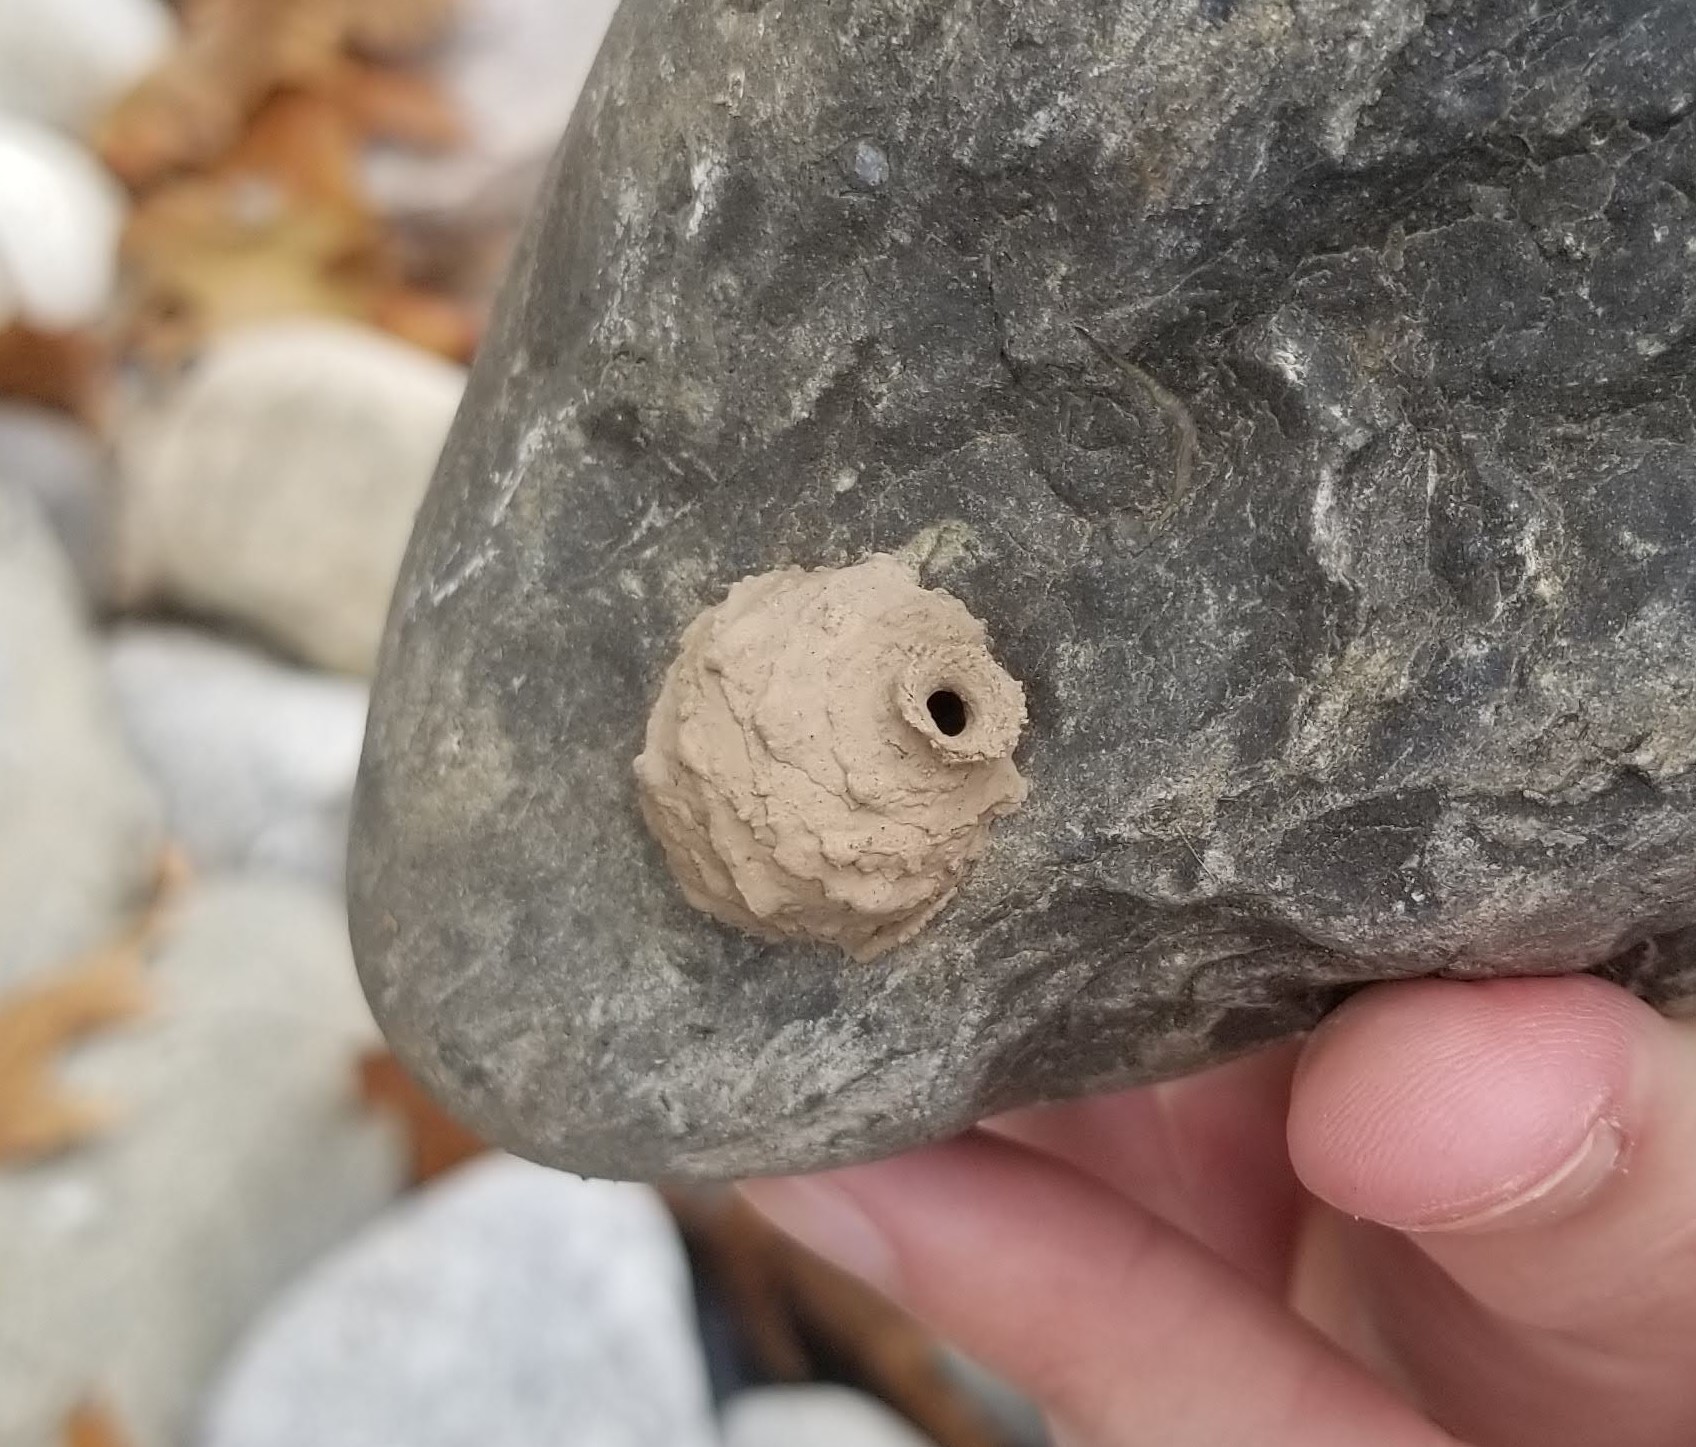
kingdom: Animalia
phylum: Arthropoda
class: Insecta
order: Hymenoptera
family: Vespidae
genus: Eumenes
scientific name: Eumenes
